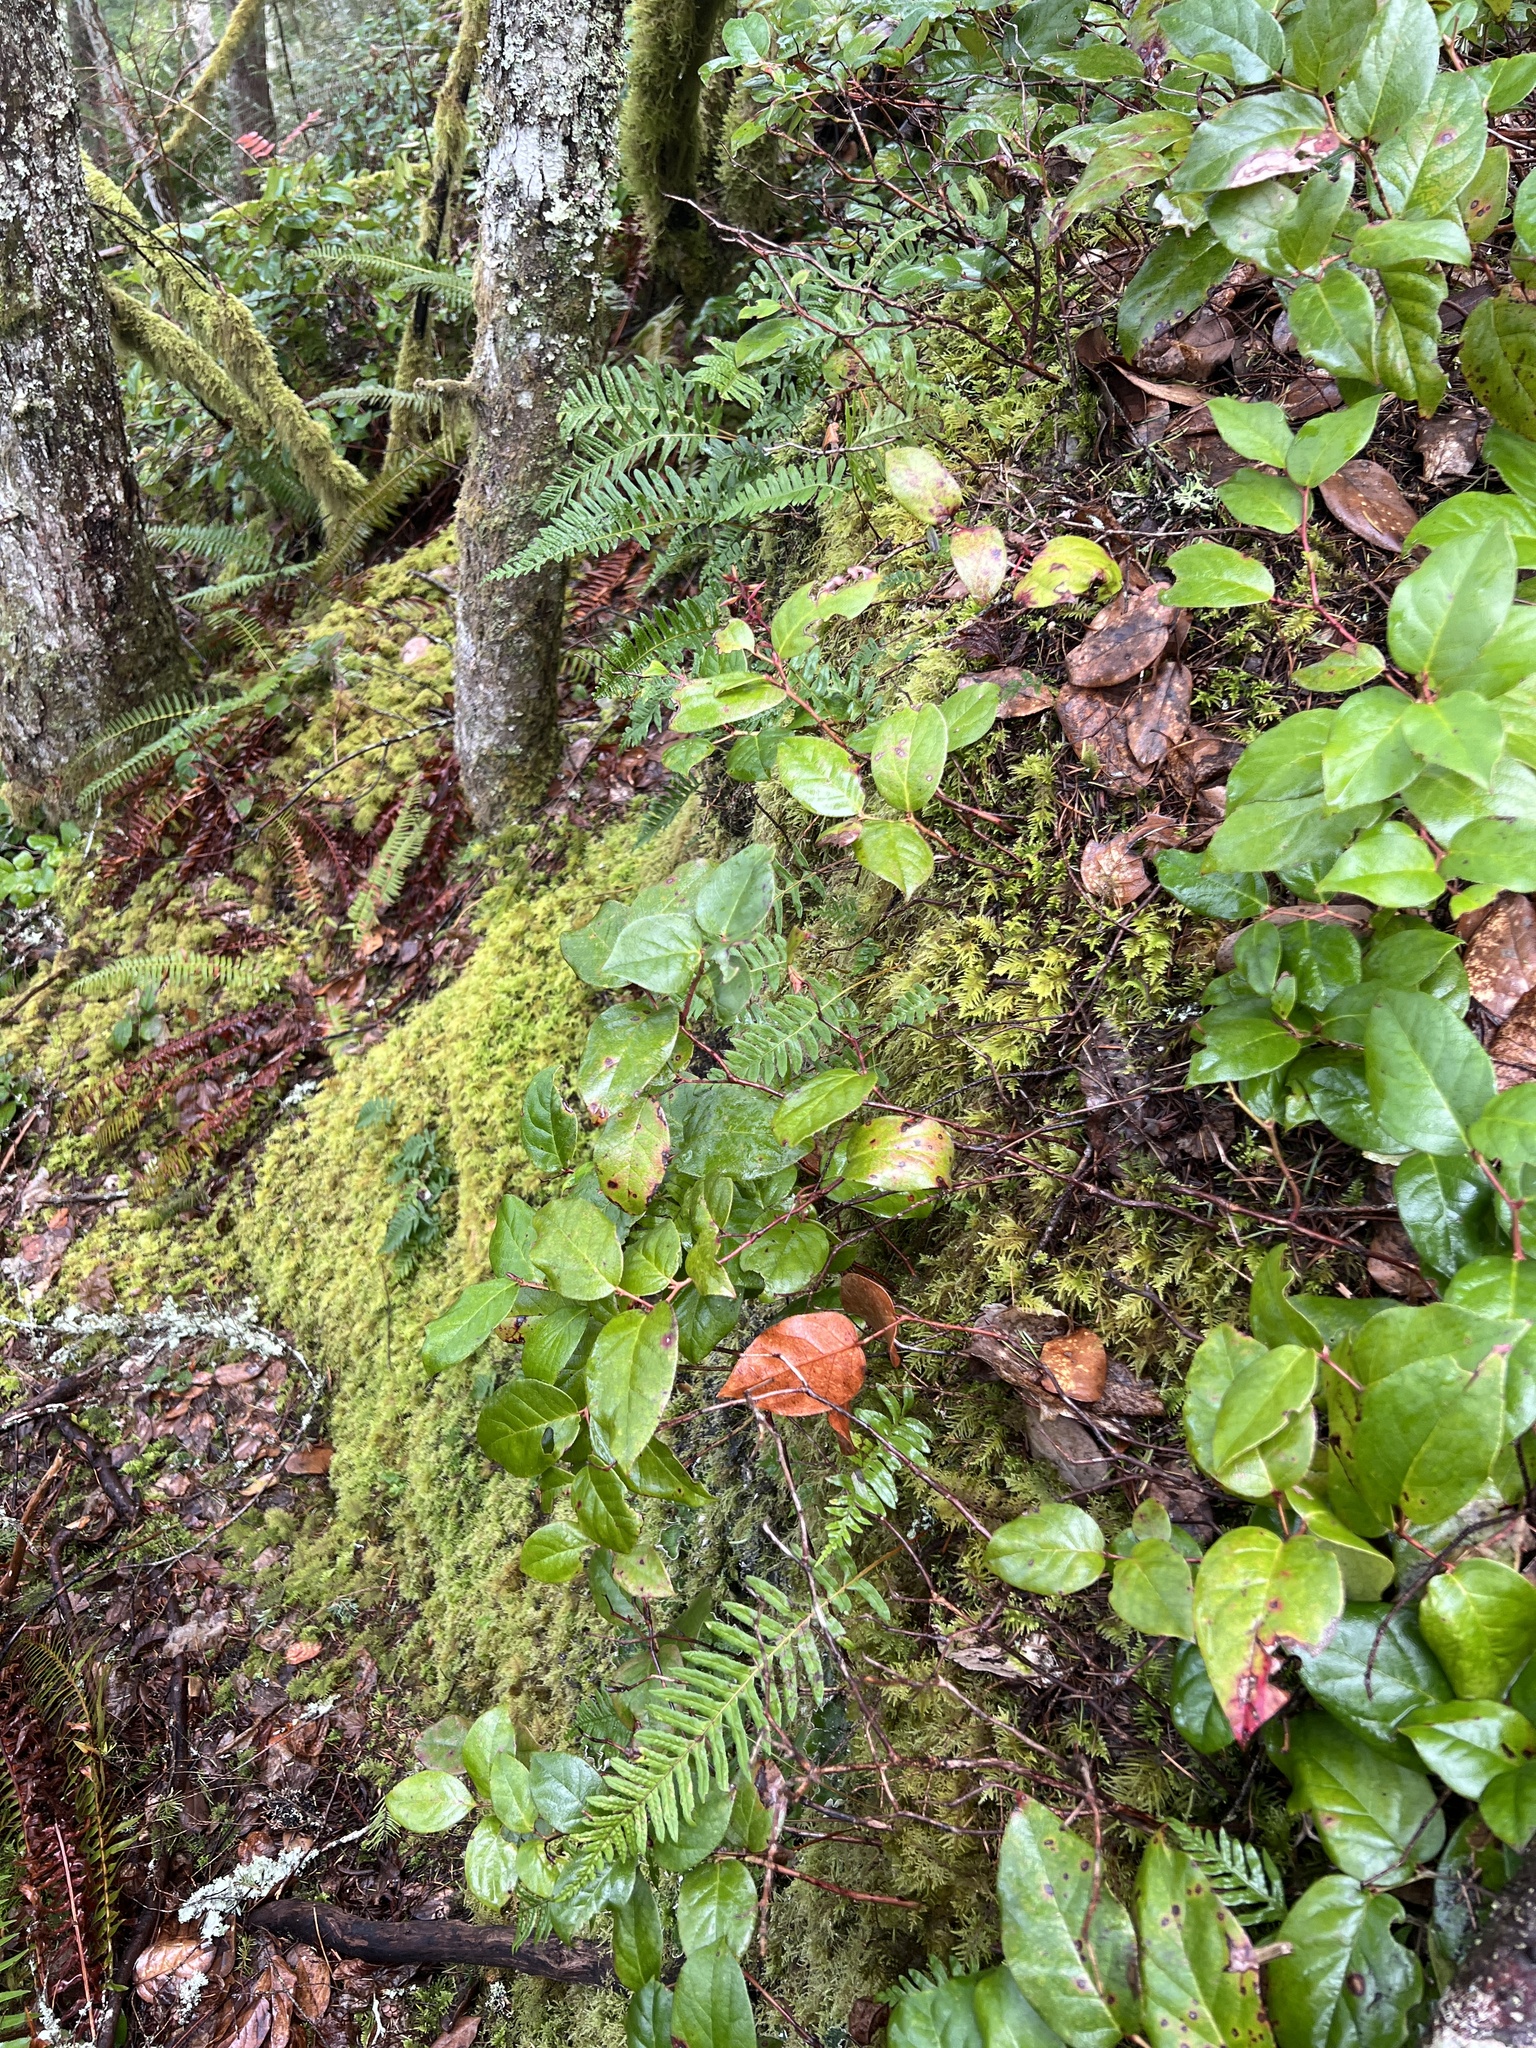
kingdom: Plantae
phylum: Tracheophyta
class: Polypodiopsida
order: Polypodiales
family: Polypodiaceae
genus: Polypodium
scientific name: Polypodium glycyrrhiza
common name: Licorice fern
